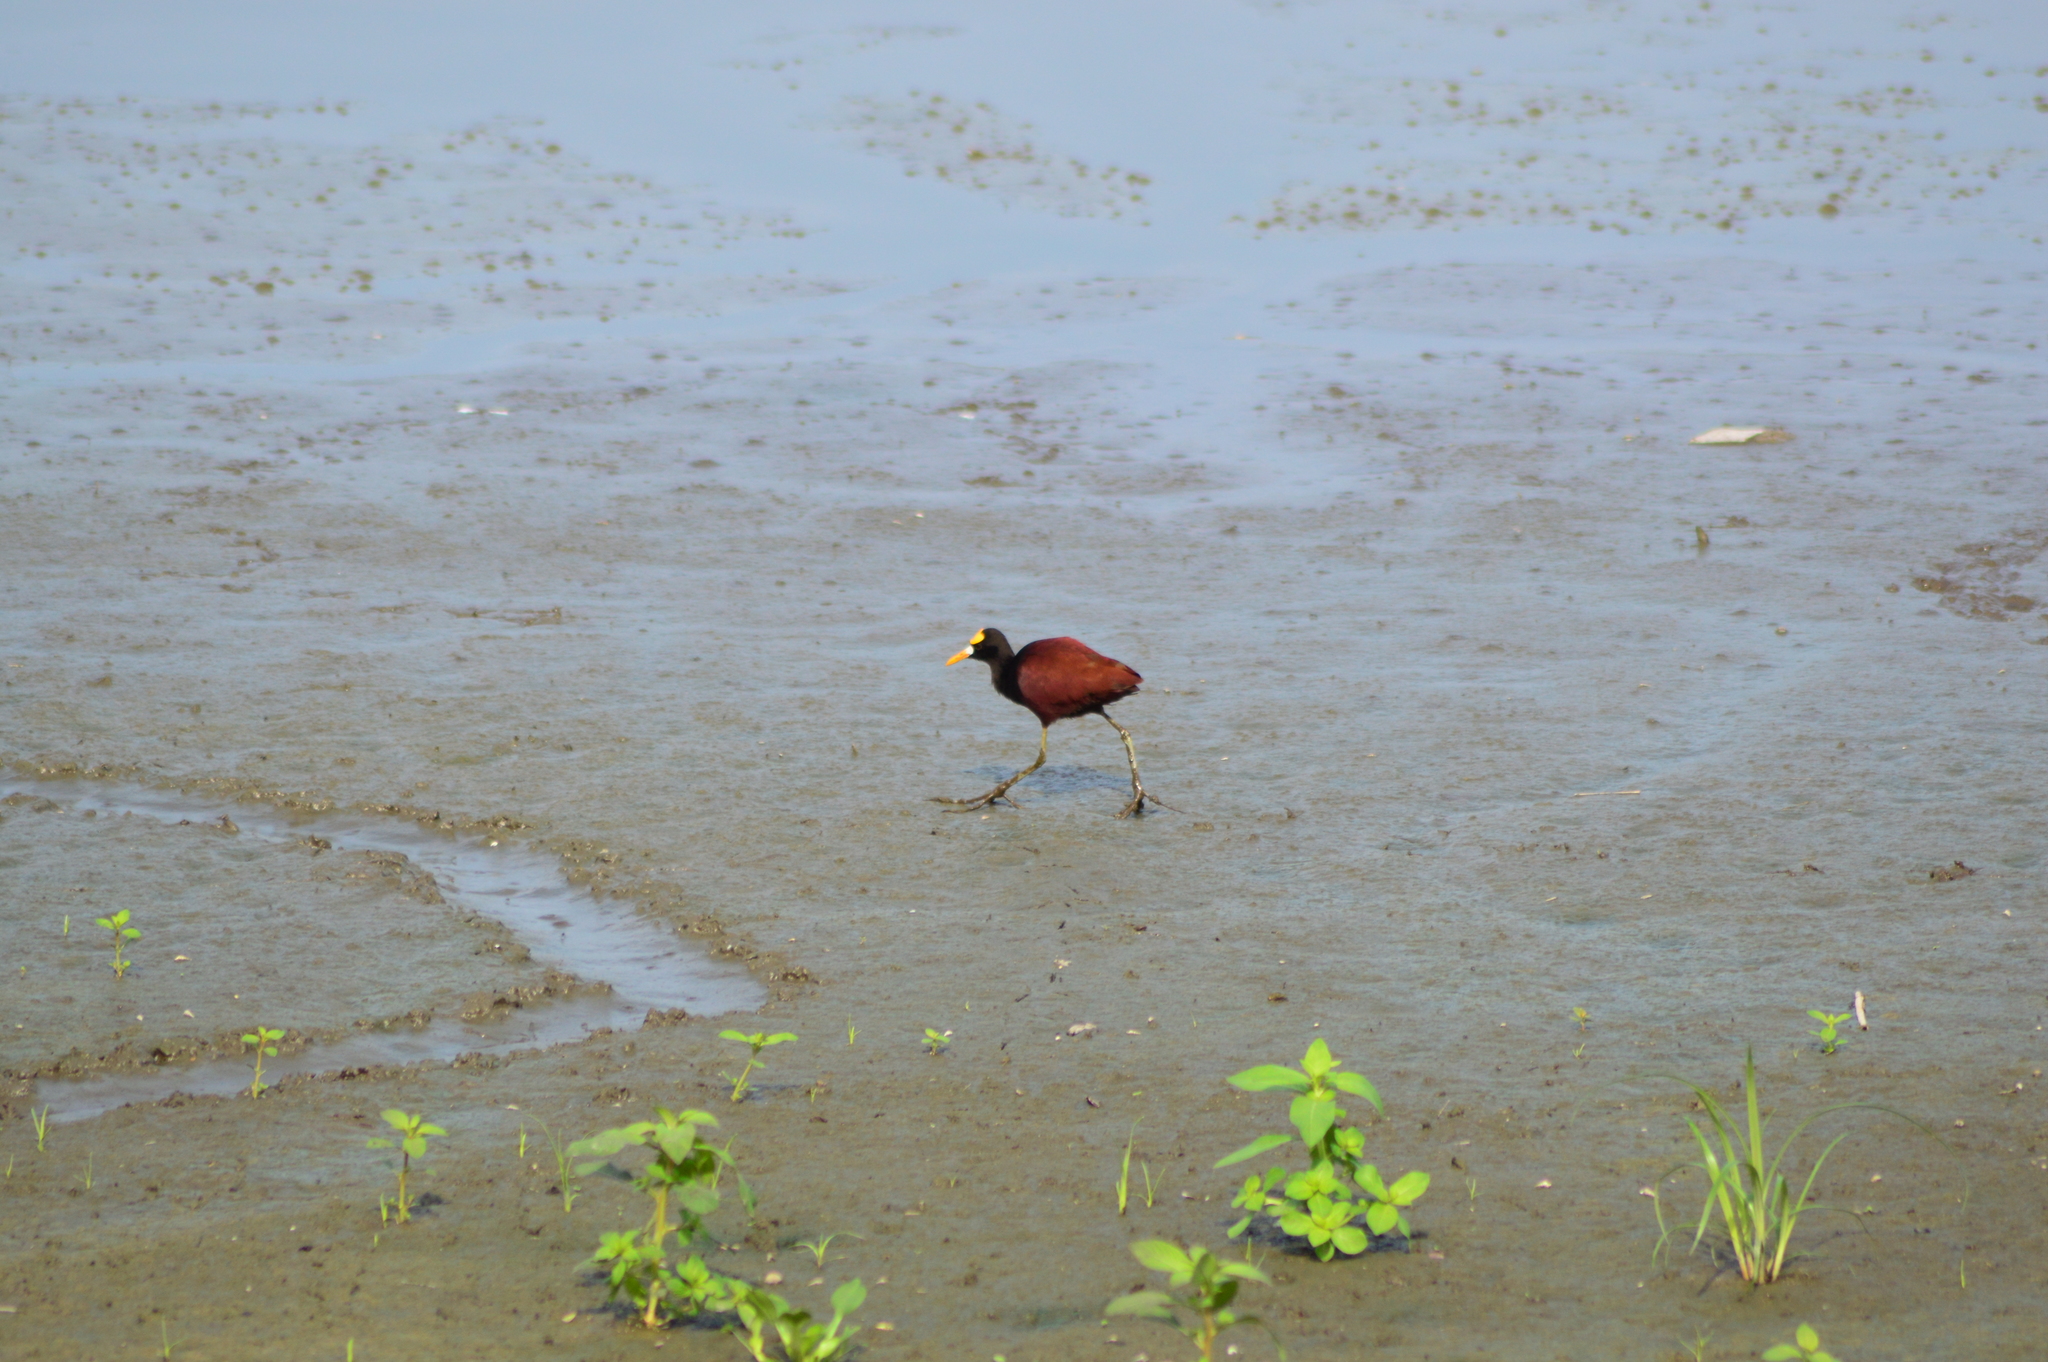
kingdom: Animalia
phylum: Chordata
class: Aves
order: Charadriiformes
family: Jacanidae
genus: Jacana
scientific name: Jacana spinosa
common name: Northern jacana
